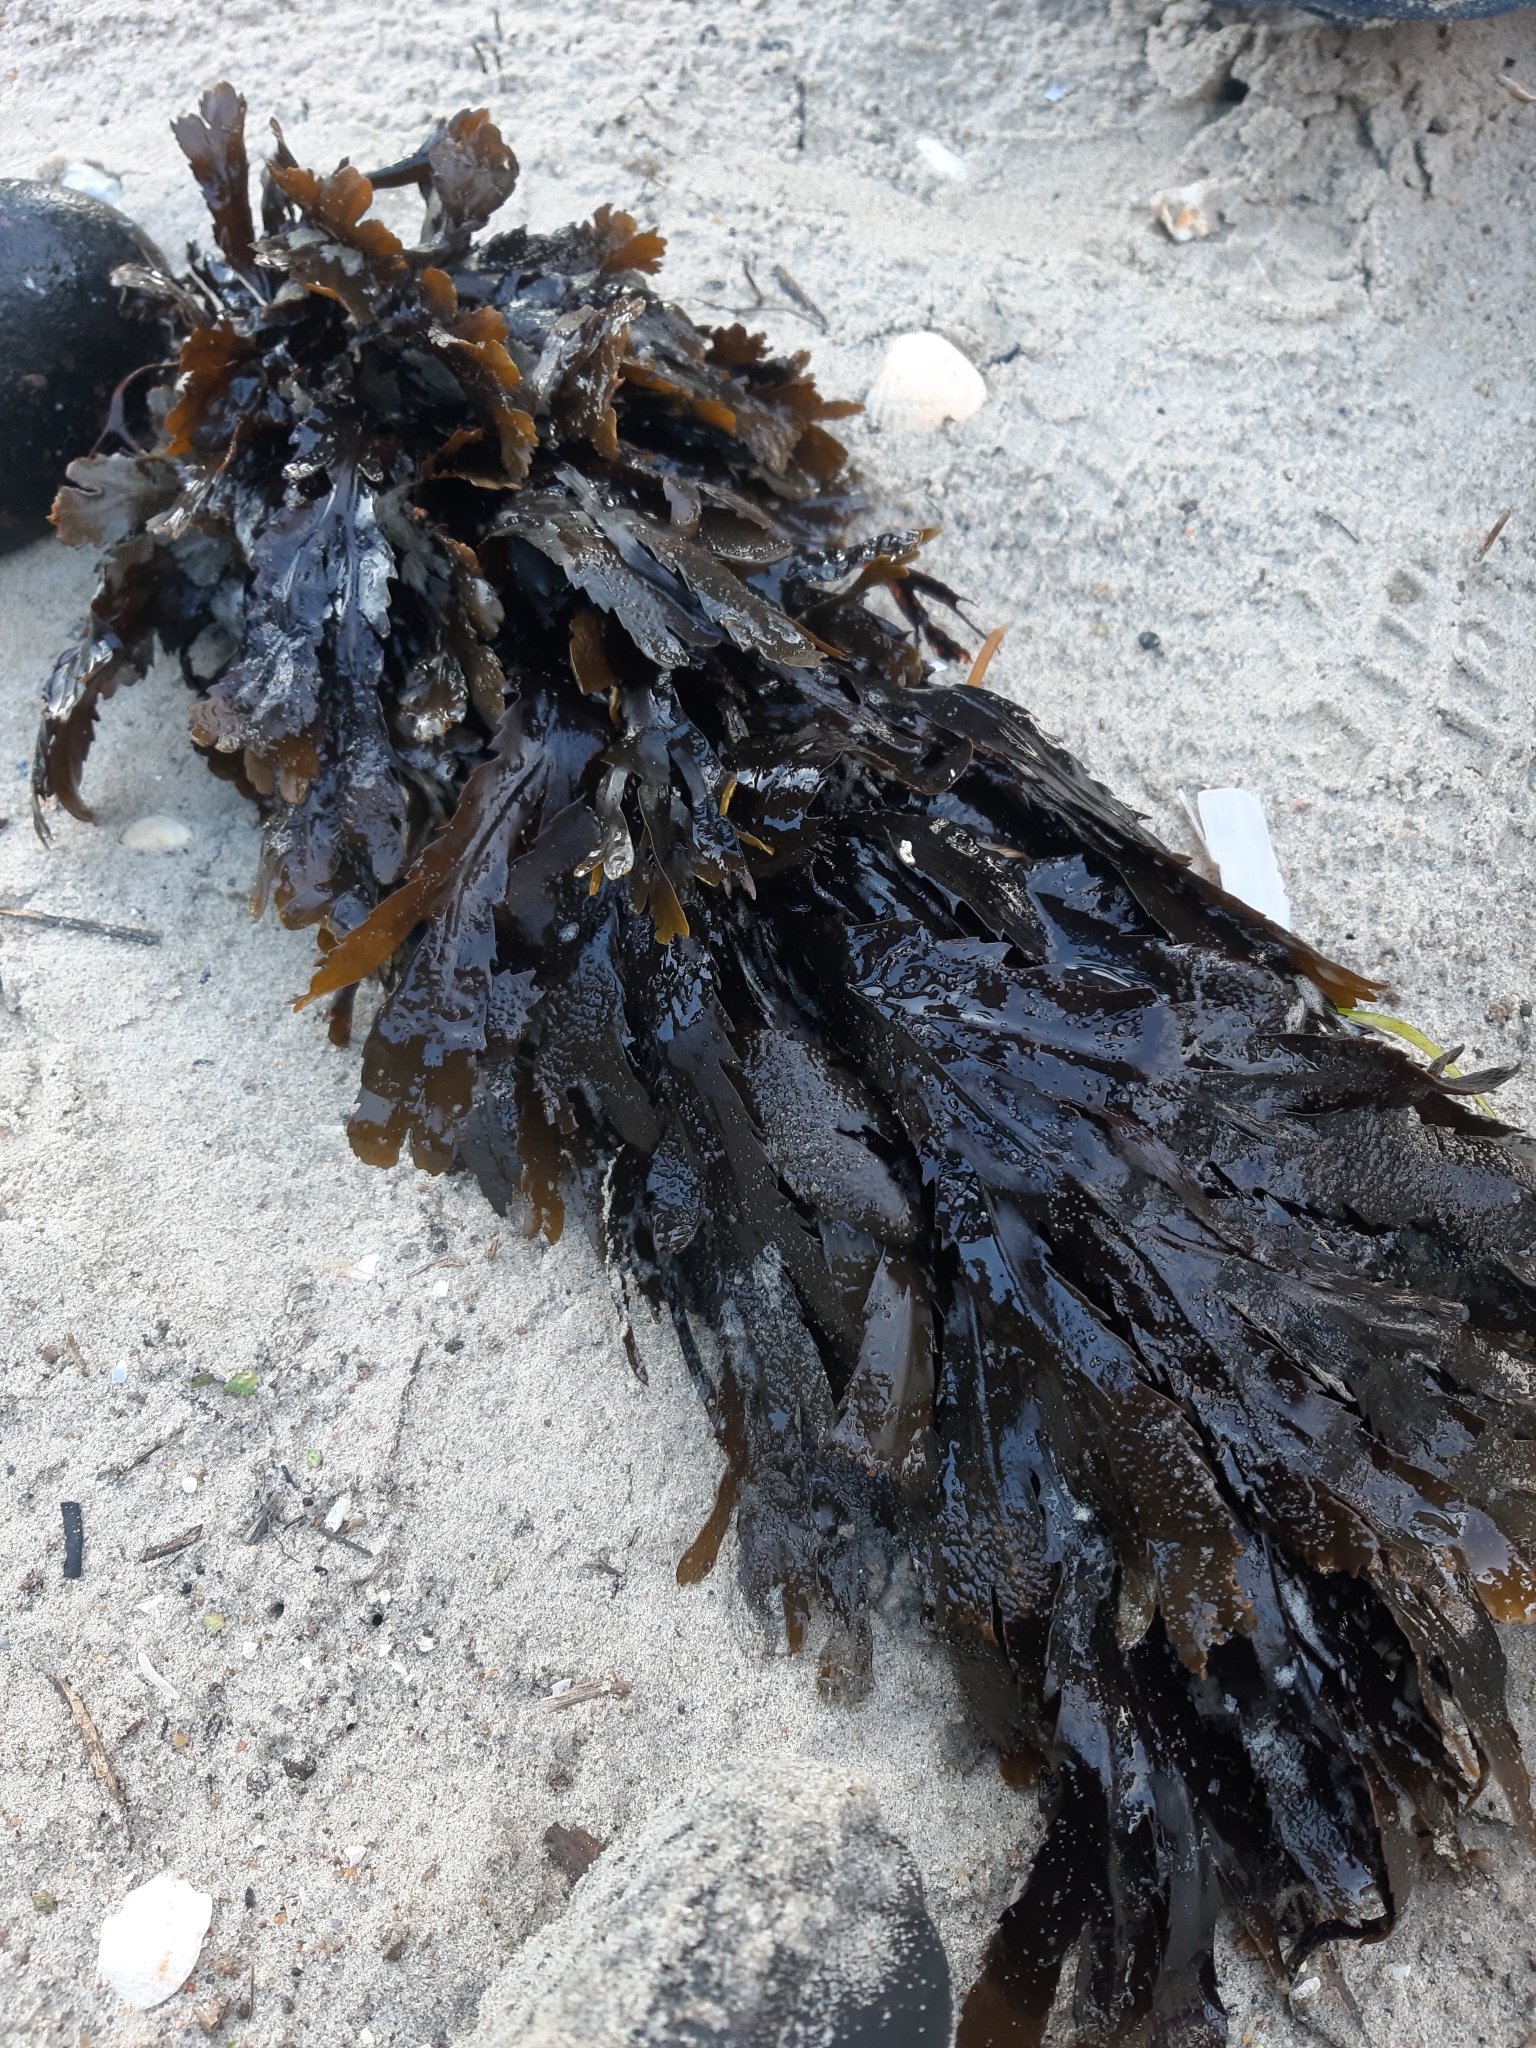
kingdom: Chromista
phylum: Ochrophyta
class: Phaeophyceae
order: Fucales
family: Fucaceae
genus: Fucus
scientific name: Fucus serratus
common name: Toothed wrack
